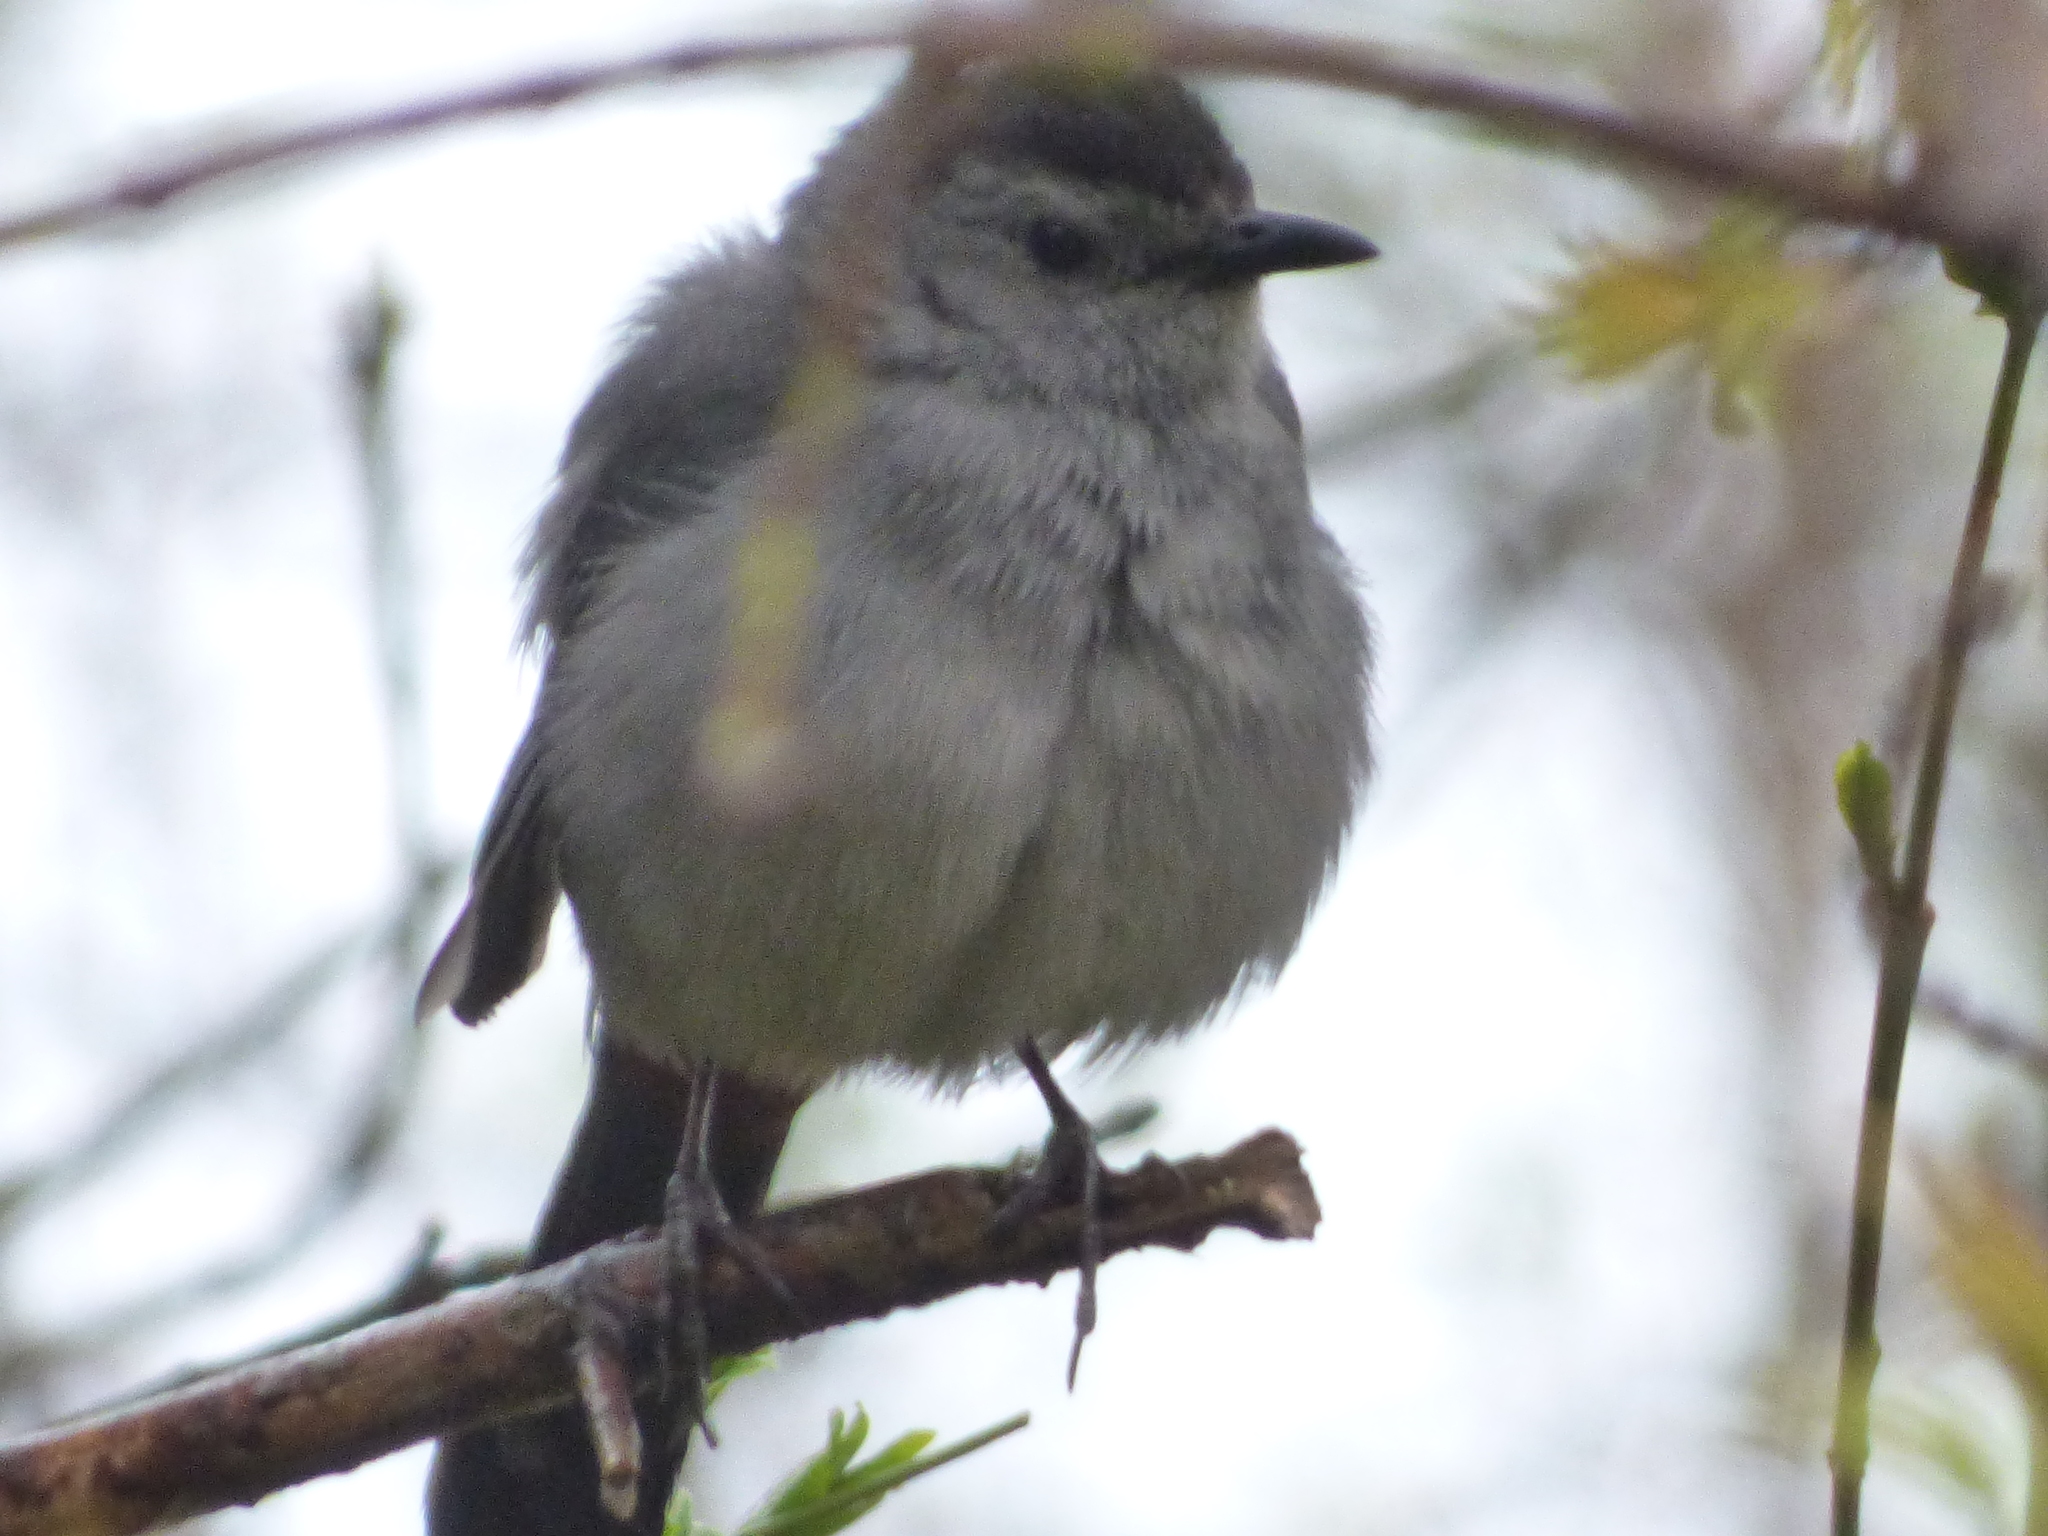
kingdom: Animalia
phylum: Chordata
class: Aves
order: Passeriformes
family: Mimidae
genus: Dumetella
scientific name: Dumetella carolinensis
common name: Gray catbird
